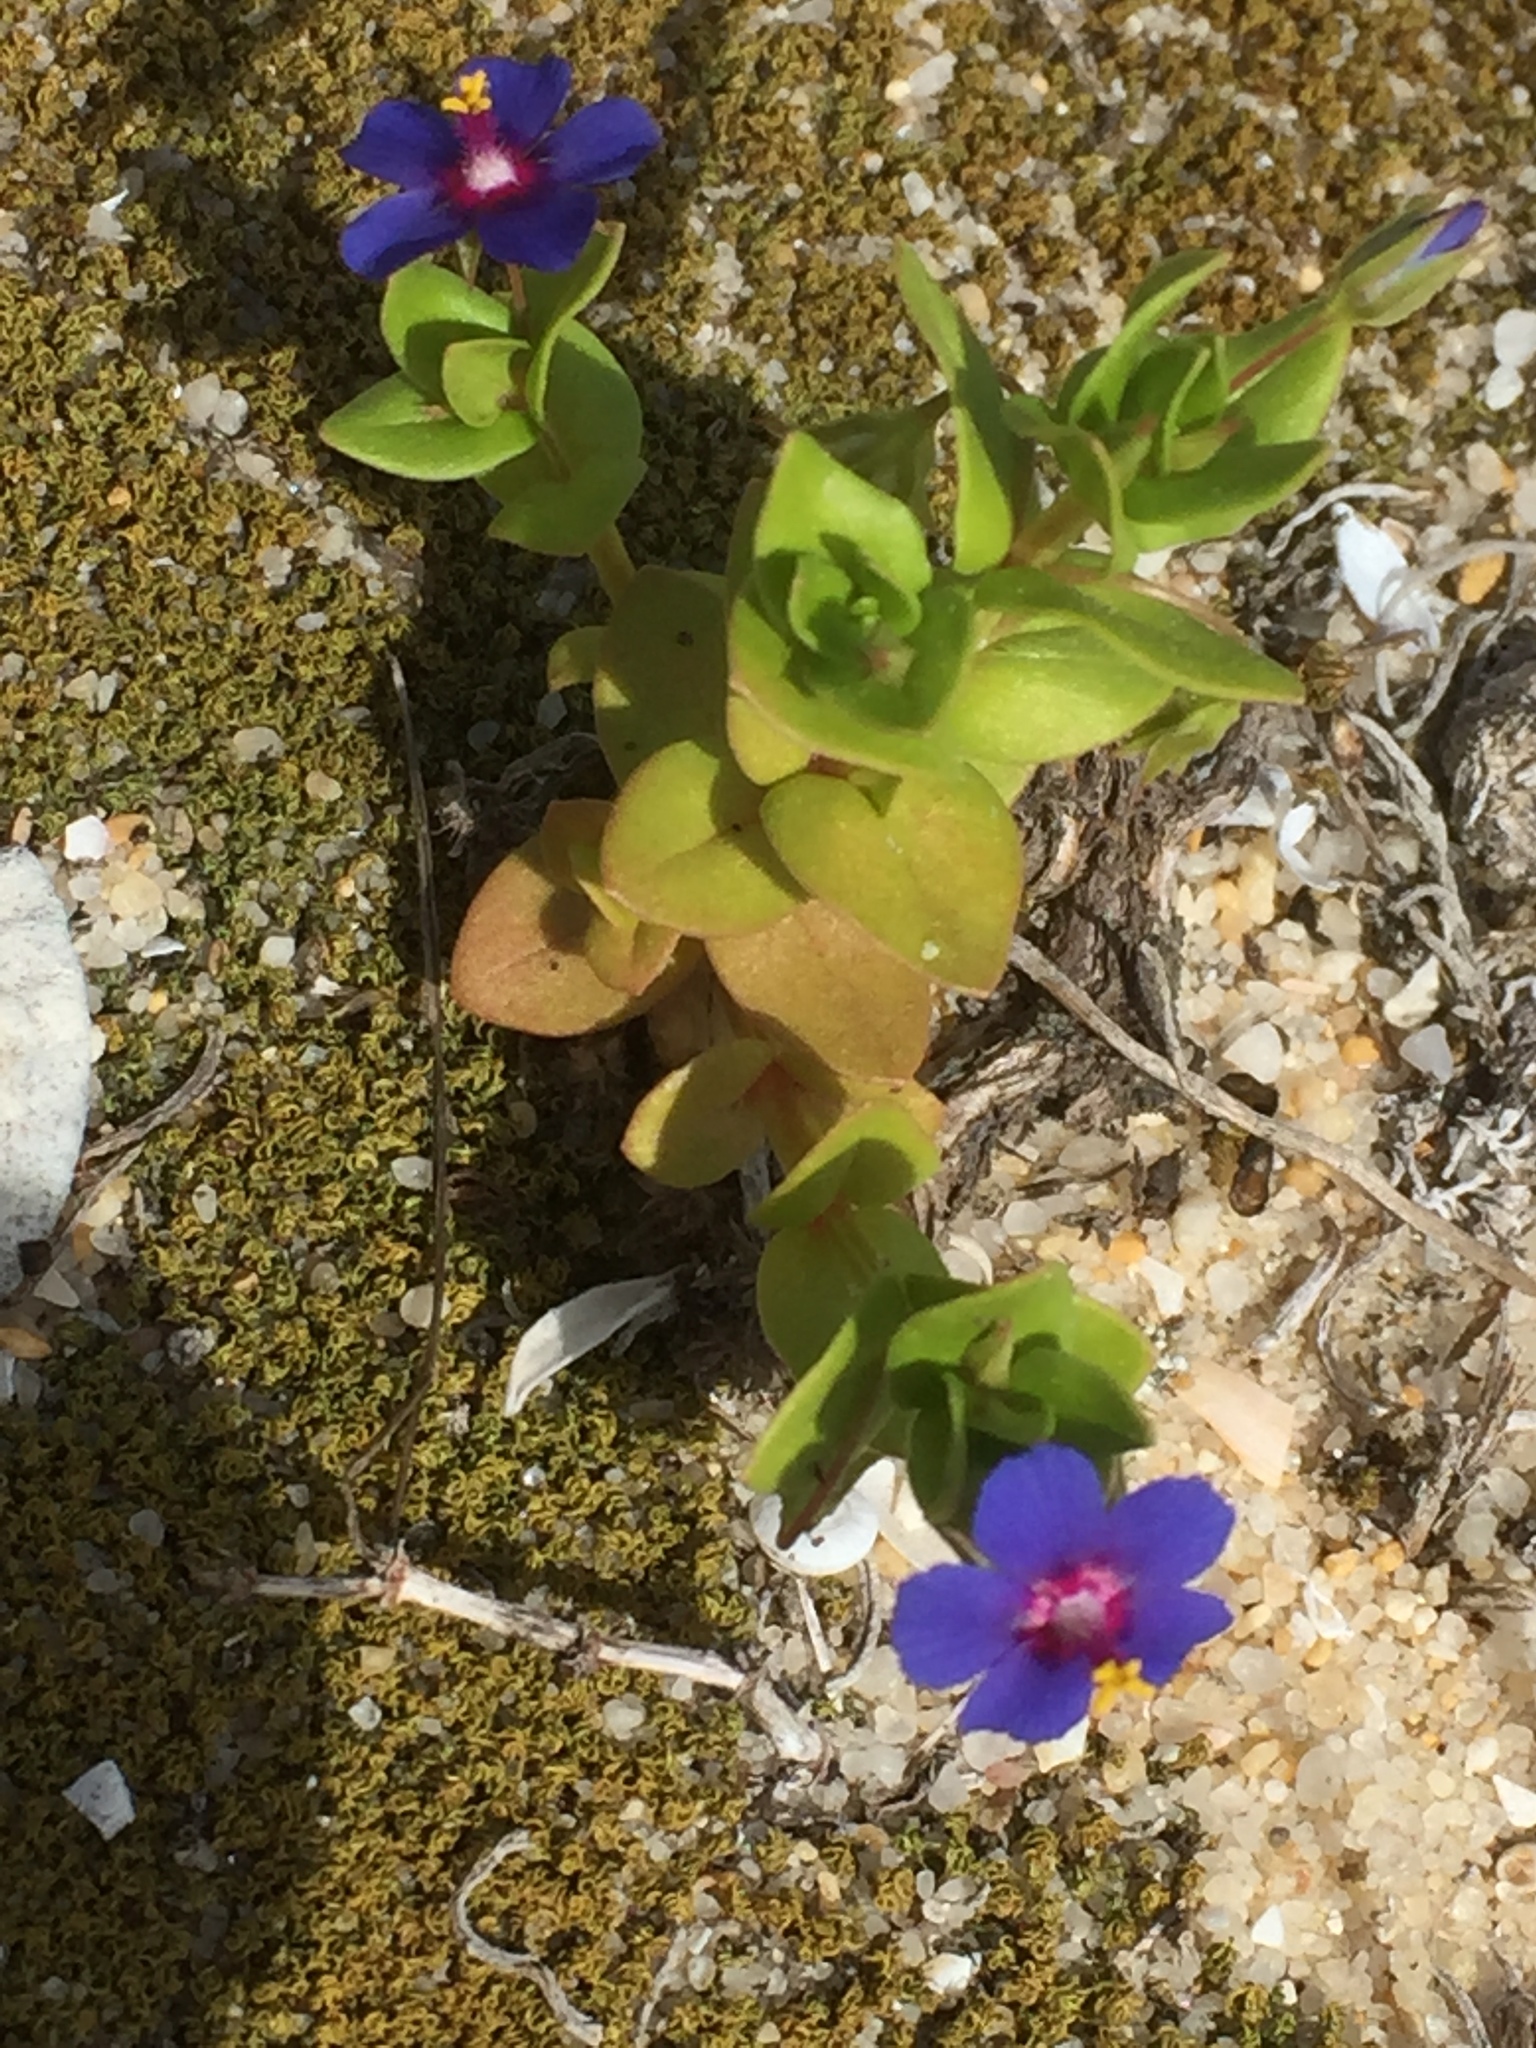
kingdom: Plantae
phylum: Tracheophyta
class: Magnoliopsida
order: Ericales
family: Primulaceae
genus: Lysimachia
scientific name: Lysimachia loeflingii
